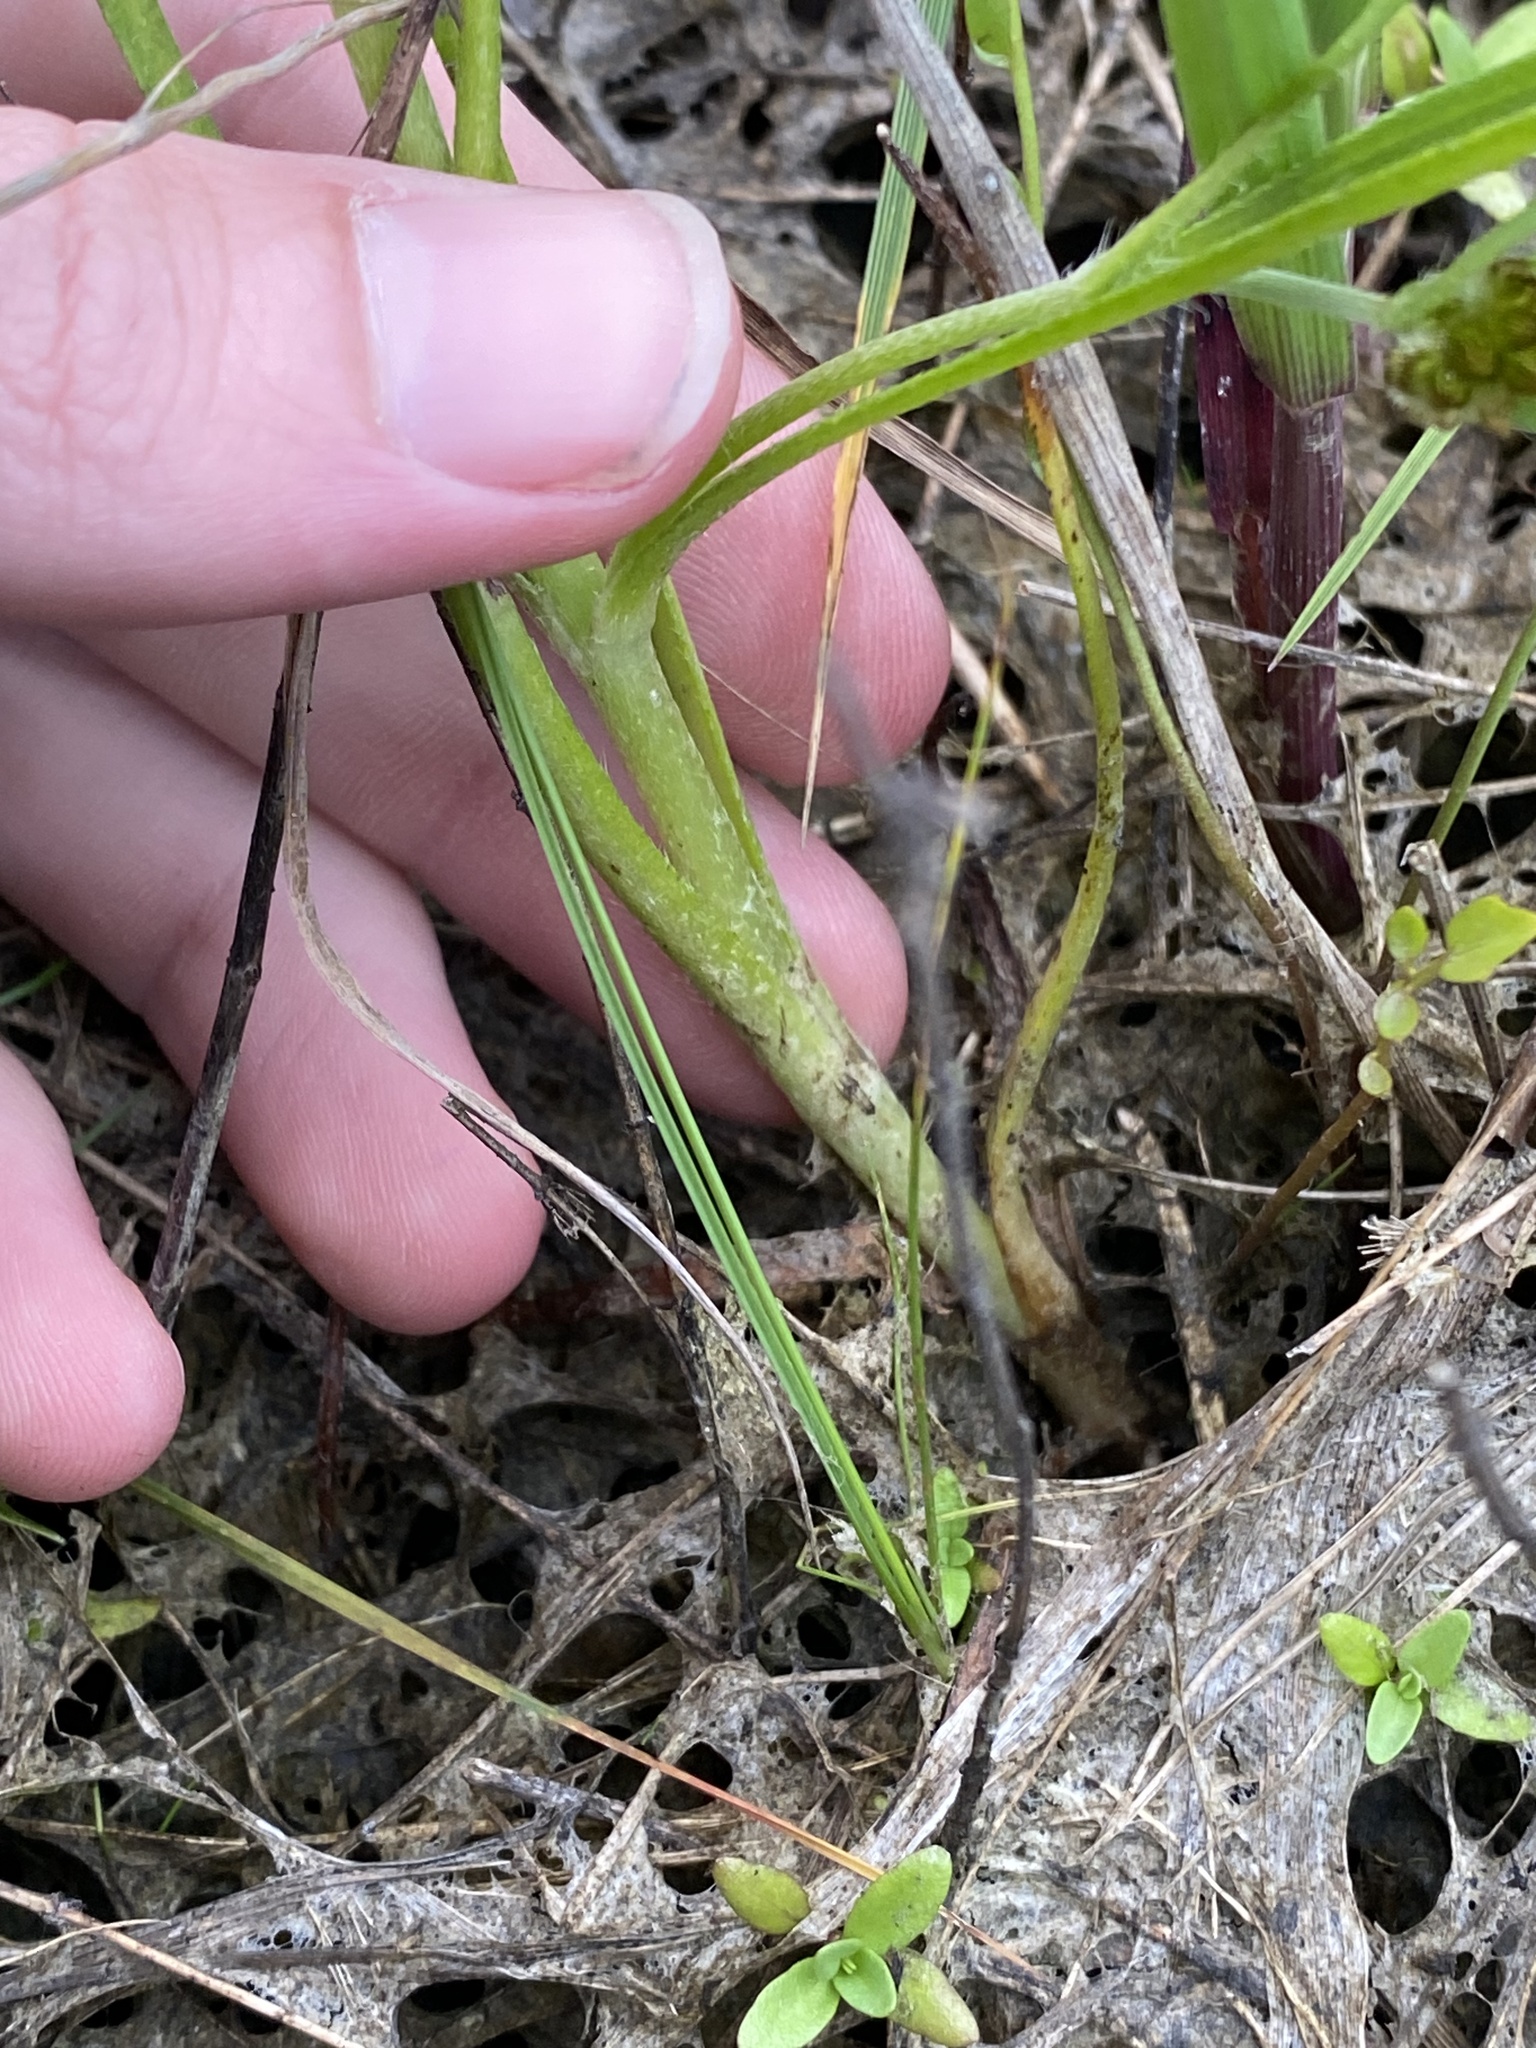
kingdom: Plantae
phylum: Tracheophyta
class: Magnoliopsida
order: Boraginales
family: Boraginaceae
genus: Plagiobothrys
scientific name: Plagiobothrys figuratus
